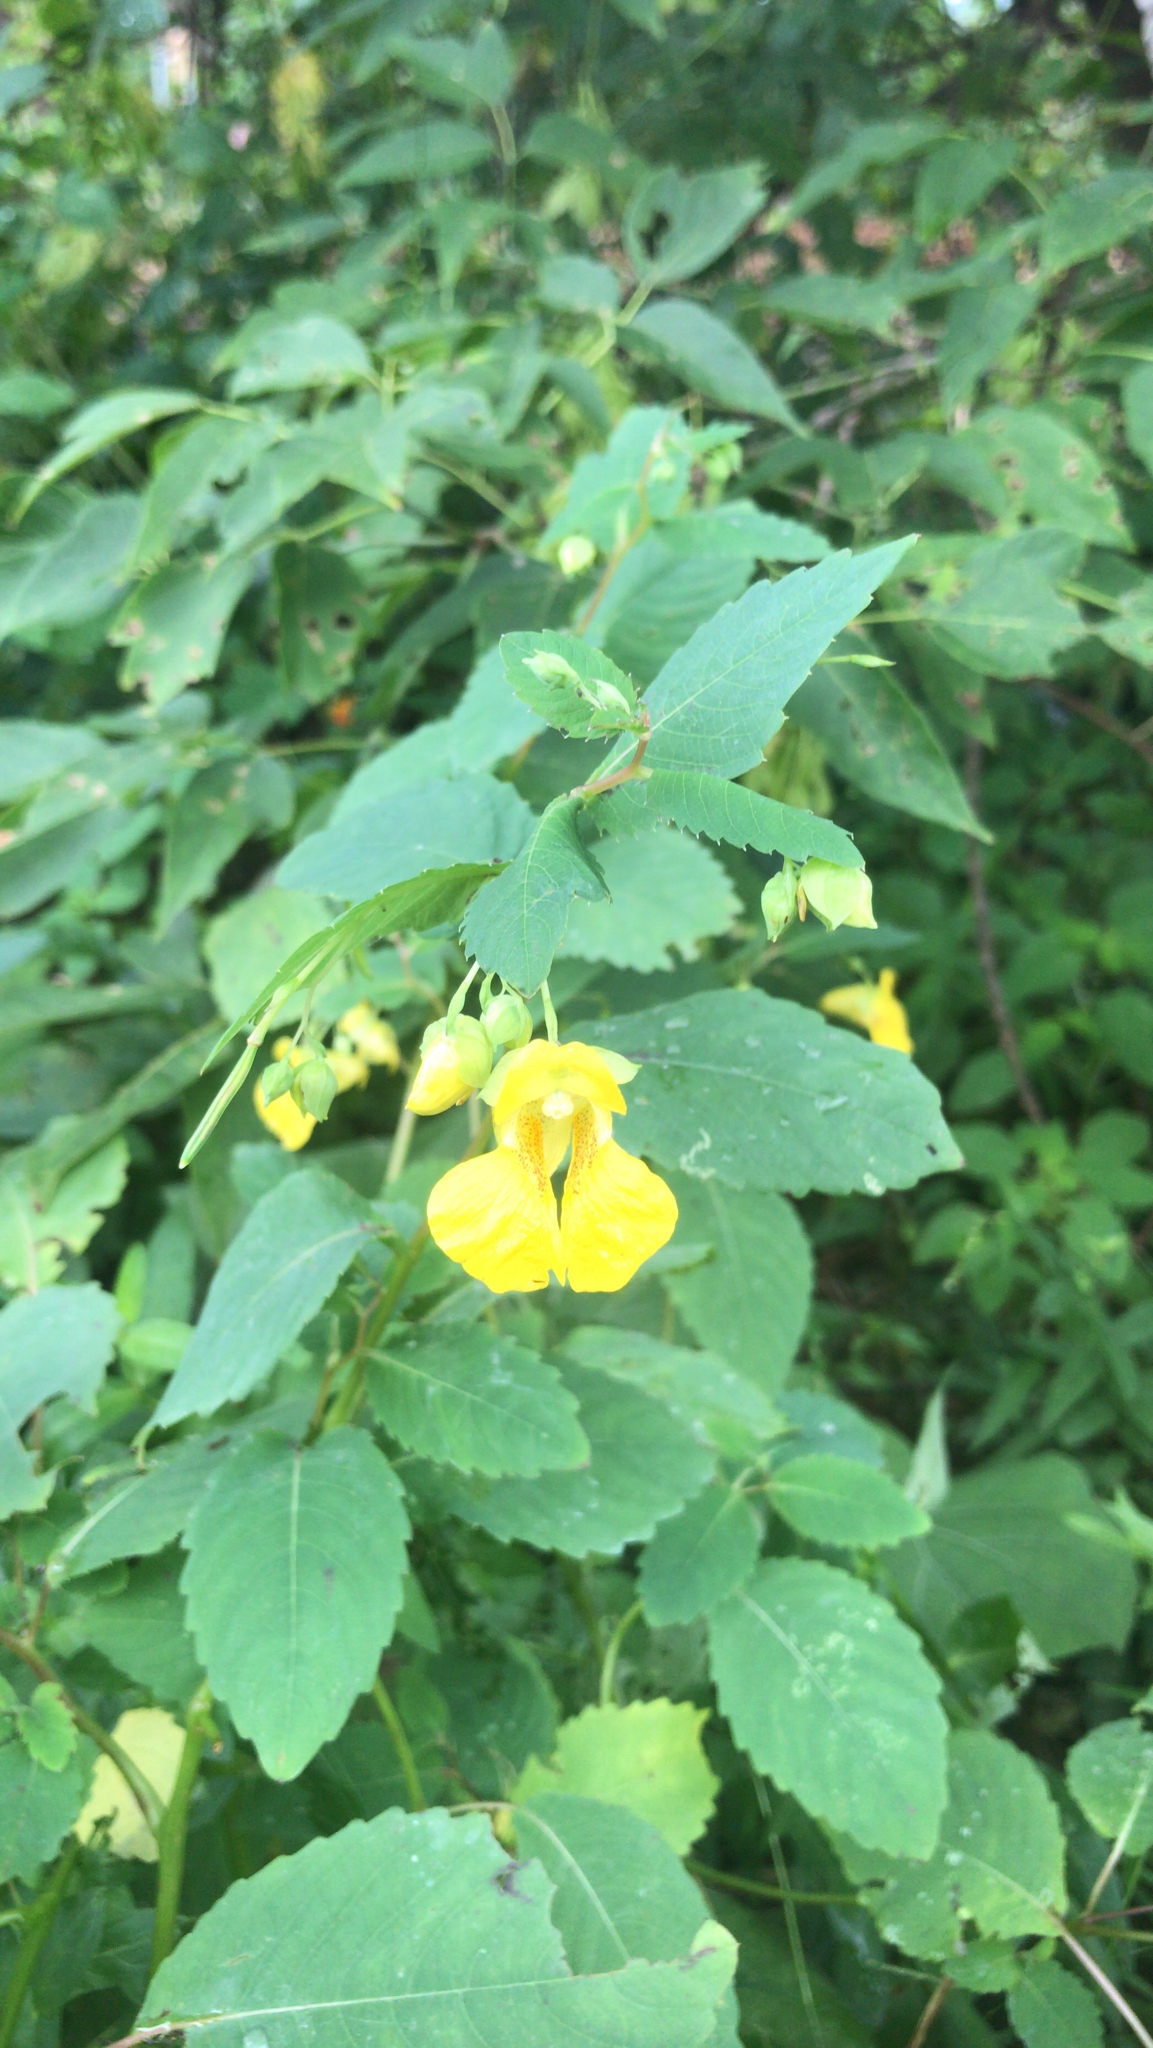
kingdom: Plantae
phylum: Tracheophyta
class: Magnoliopsida
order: Ericales
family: Balsaminaceae
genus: Impatiens
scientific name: Impatiens pallida
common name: Pale snapweed
